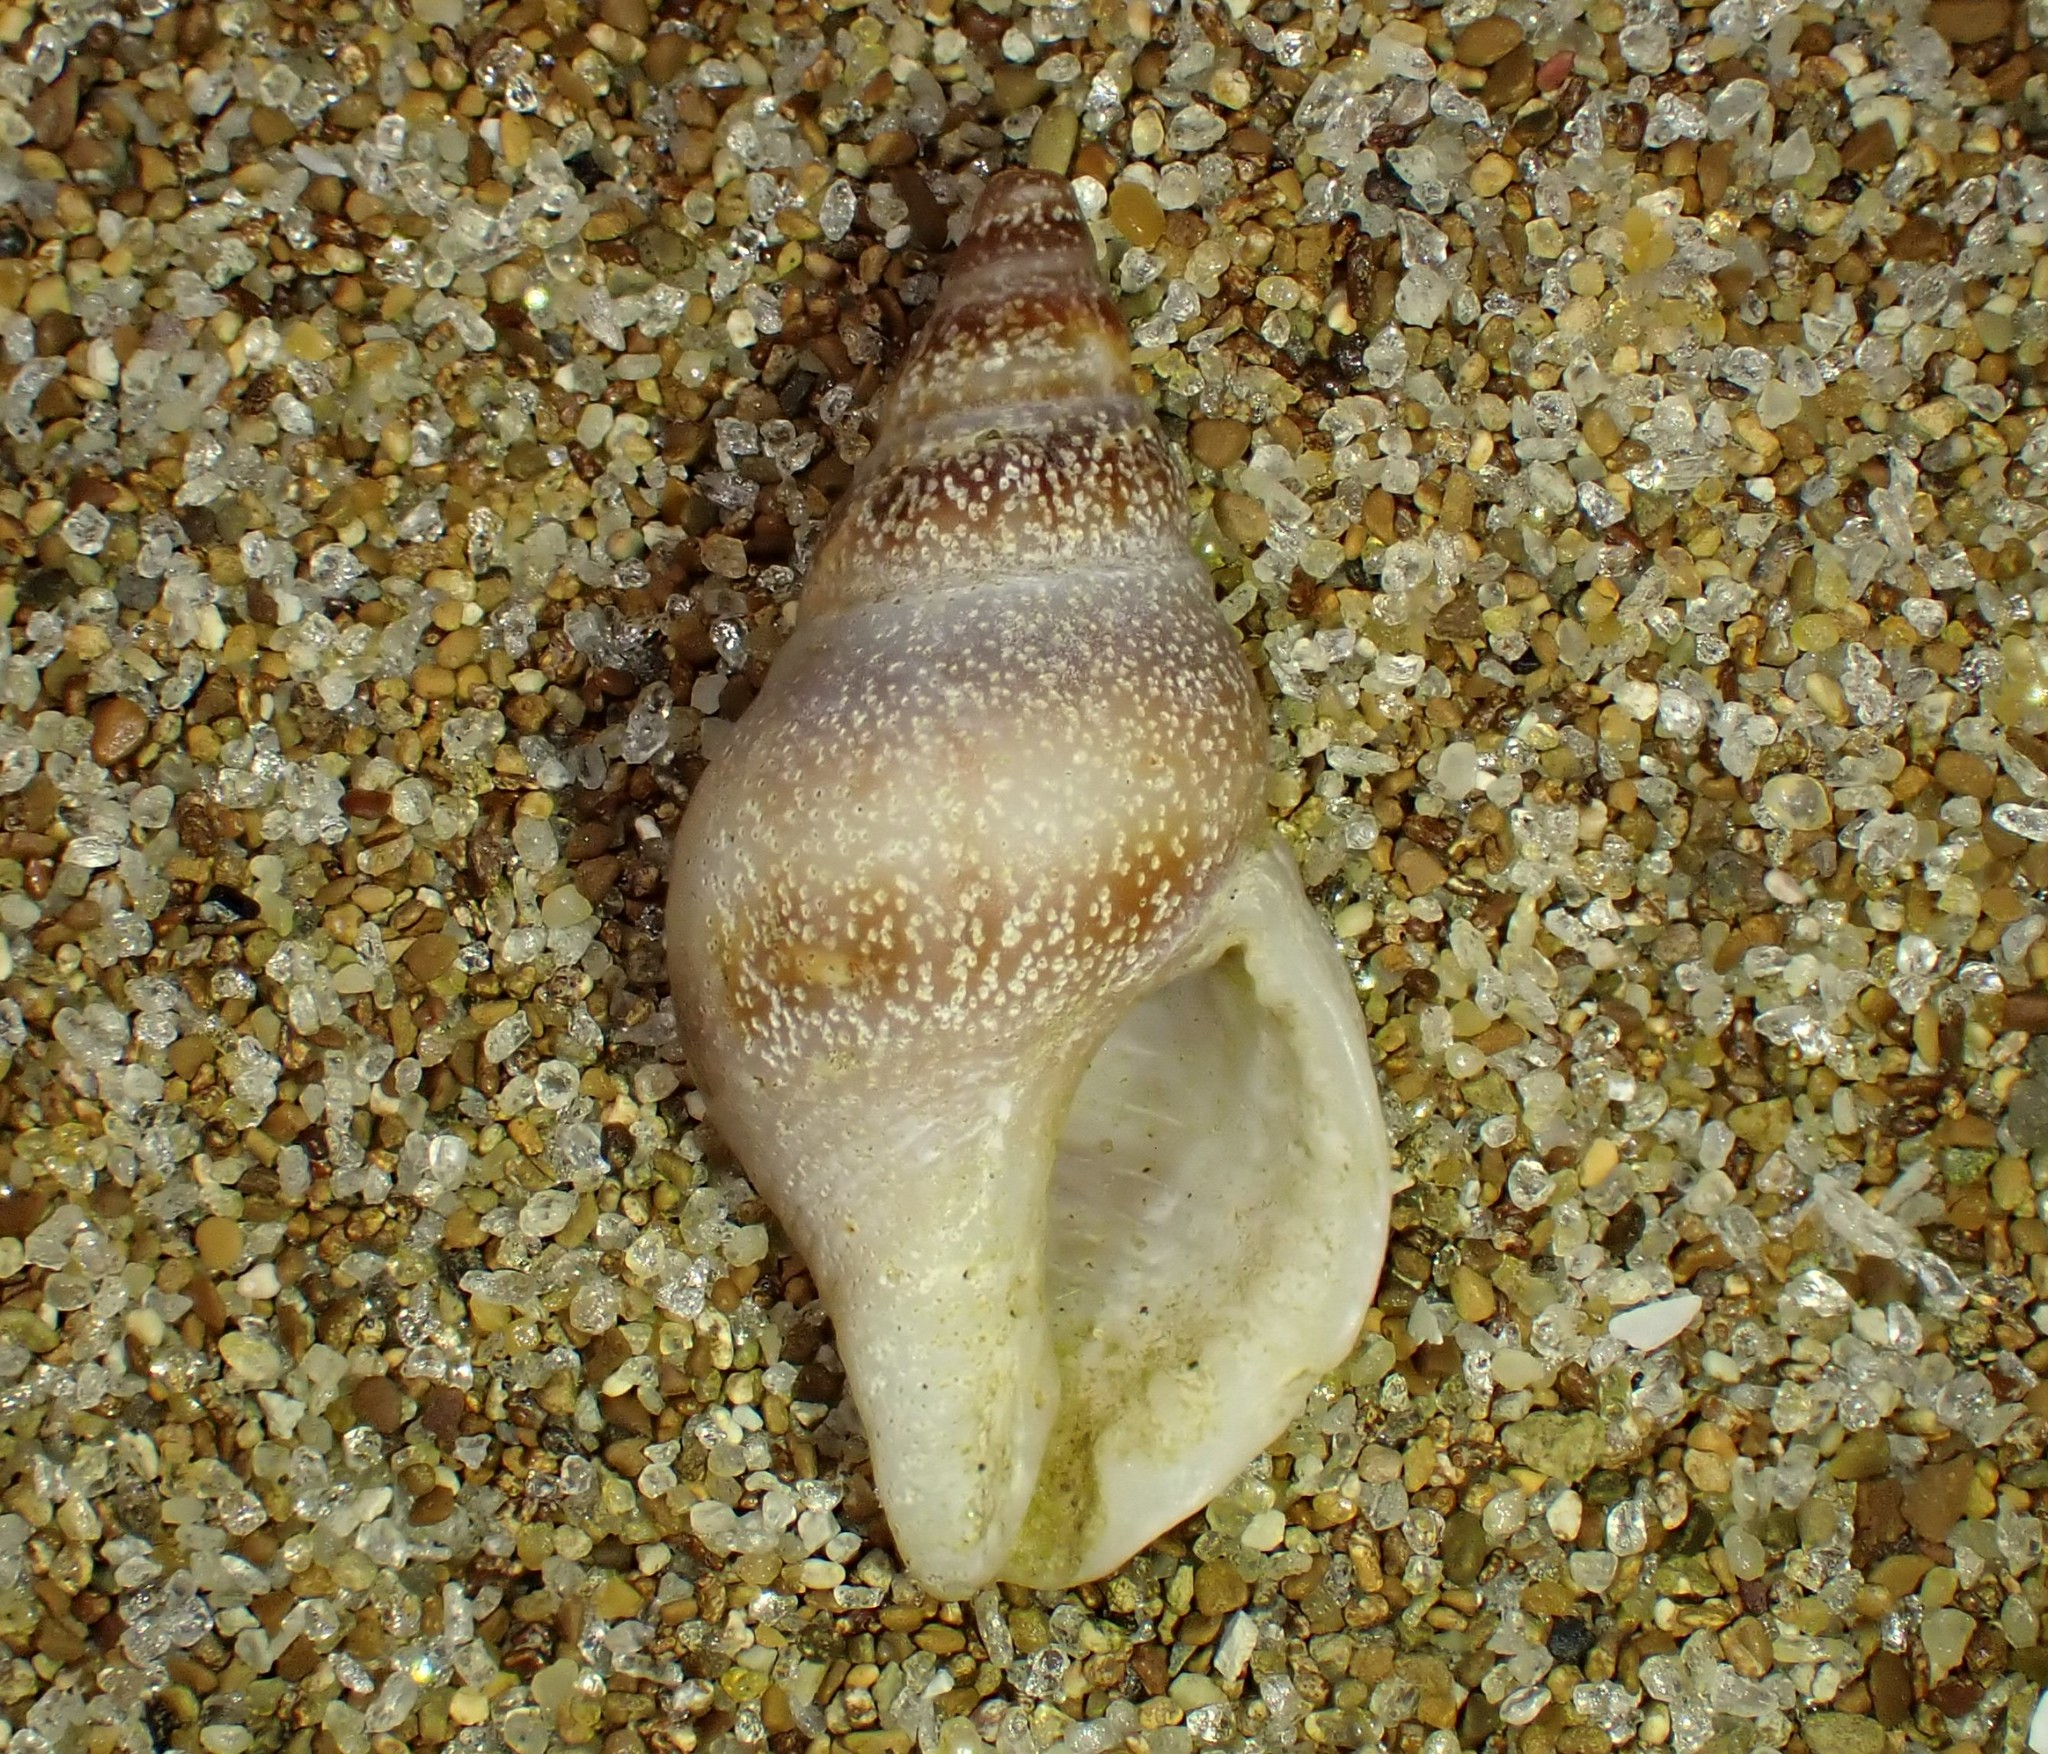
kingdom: Animalia
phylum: Mollusca
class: Gastropoda
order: Neogastropoda
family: Tudiclidae
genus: Buccinulum
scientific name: Buccinulum vittatum
